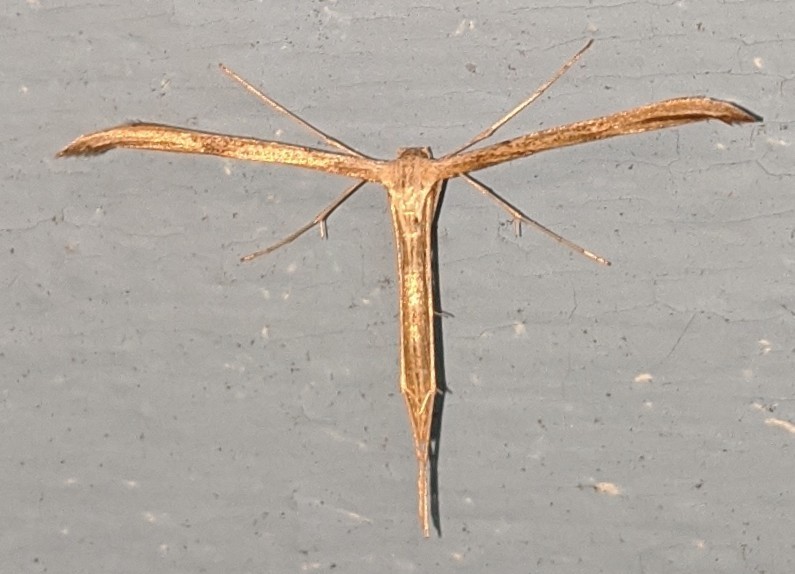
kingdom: Animalia
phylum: Arthropoda
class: Insecta
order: Lepidoptera
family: Pterophoridae
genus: Emmelina
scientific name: Emmelina monodactyla
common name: Common plume
